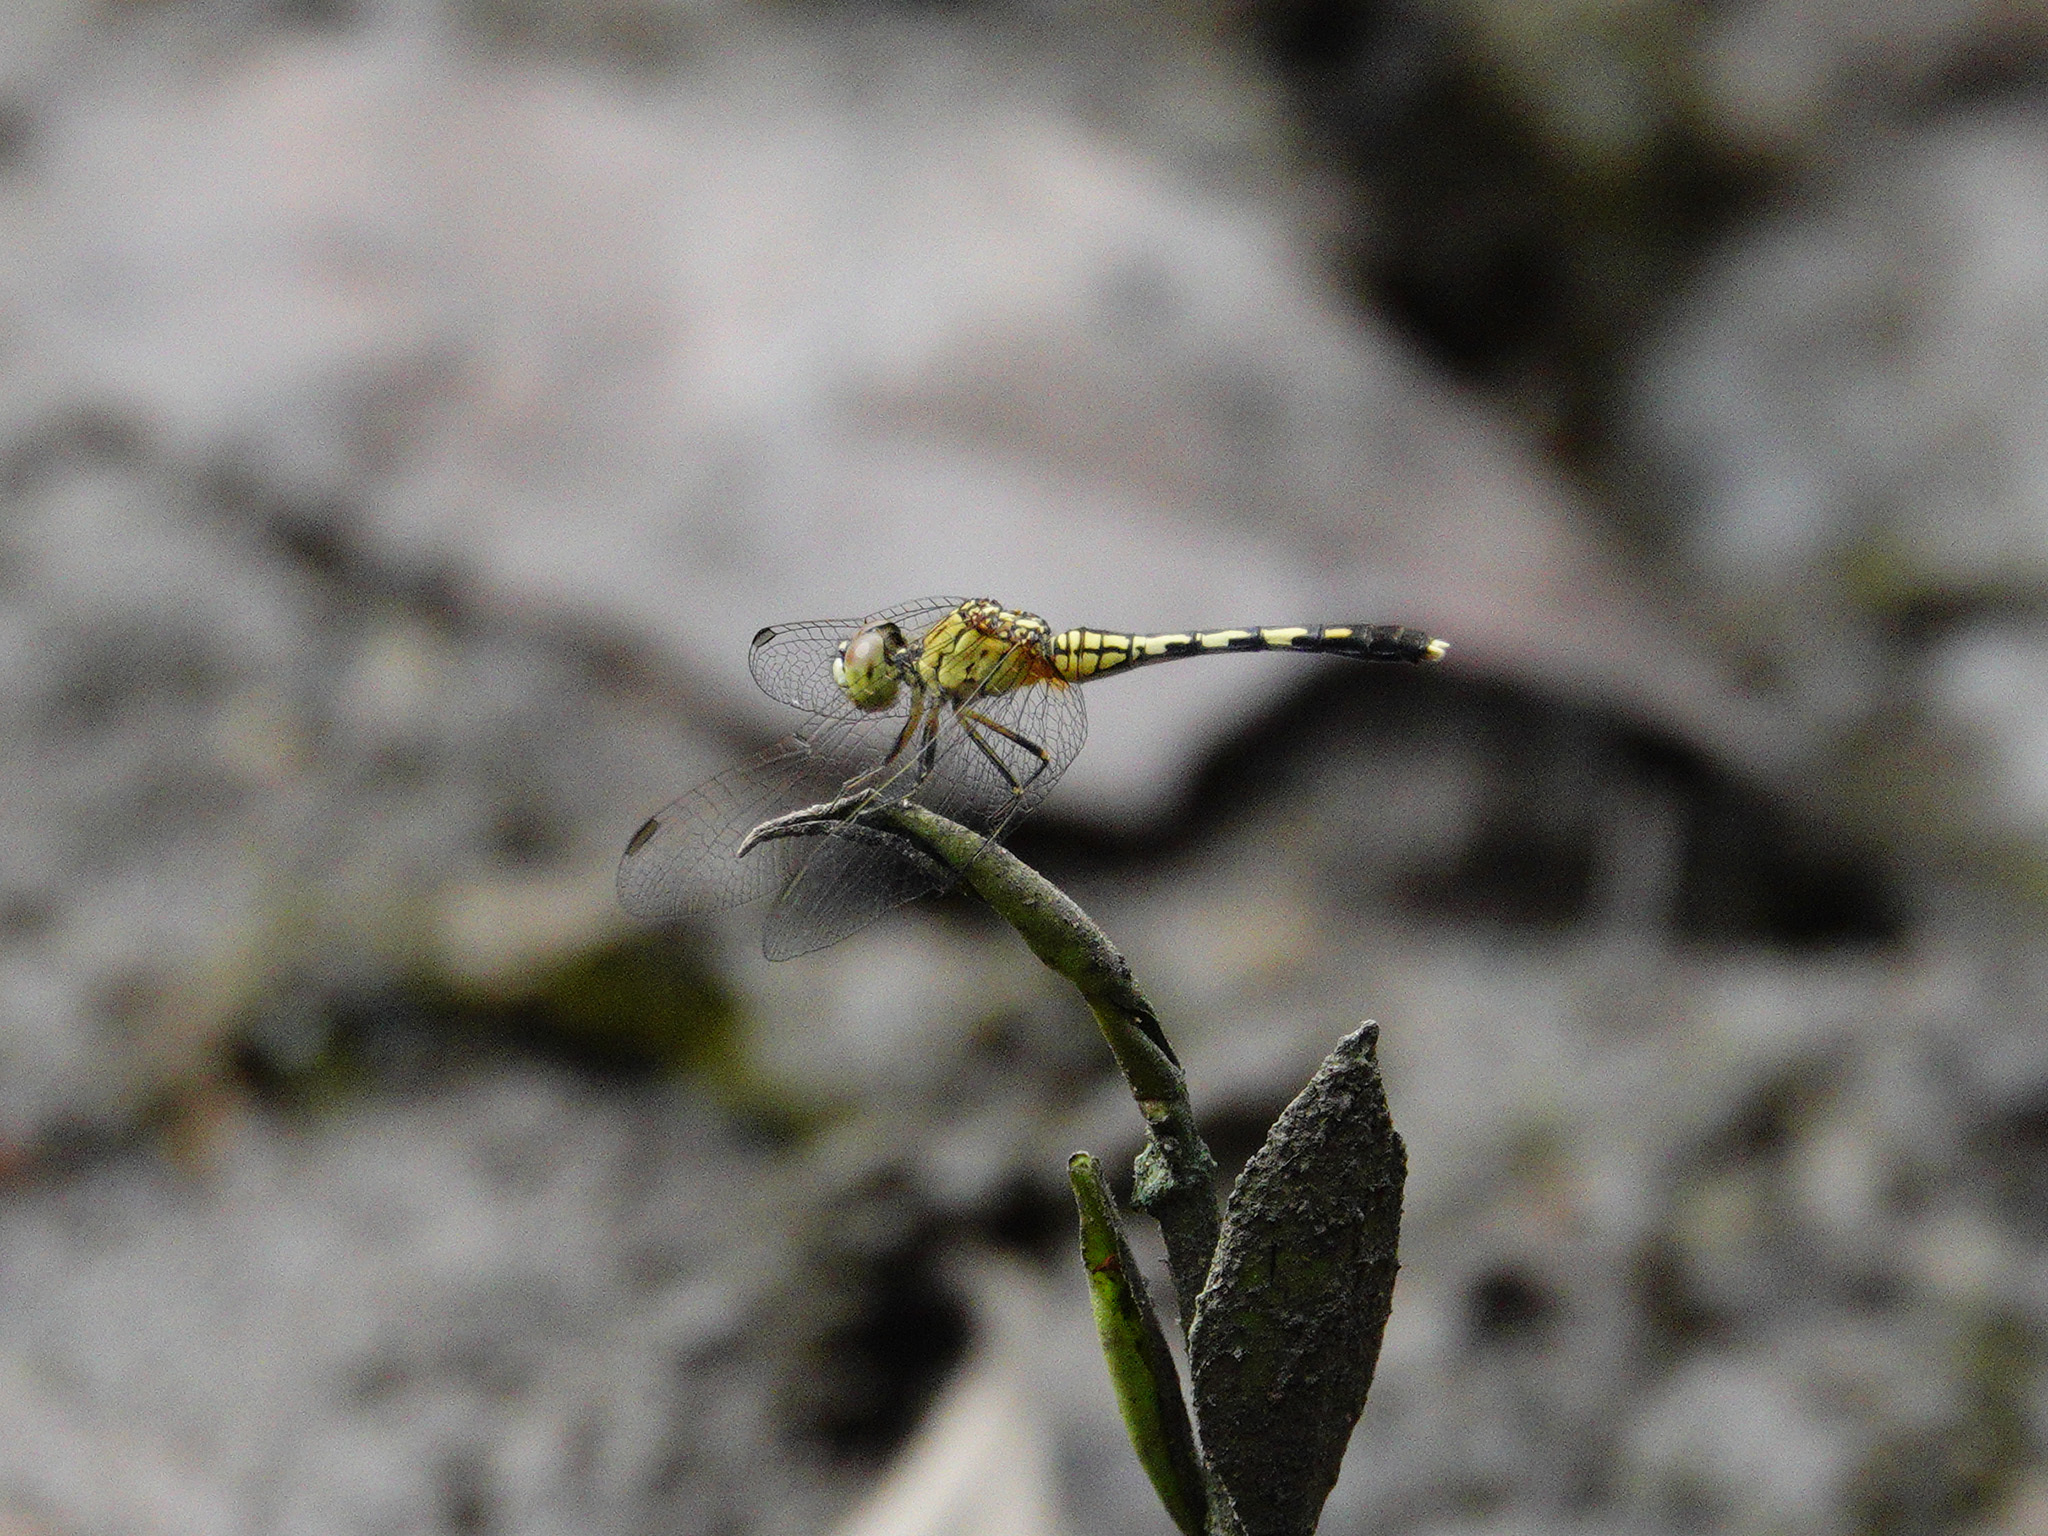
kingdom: Animalia
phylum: Arthropoda
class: Insecta
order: Odonata
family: Libellulidae
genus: Diplacodes
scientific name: Diplacodes trivialis
